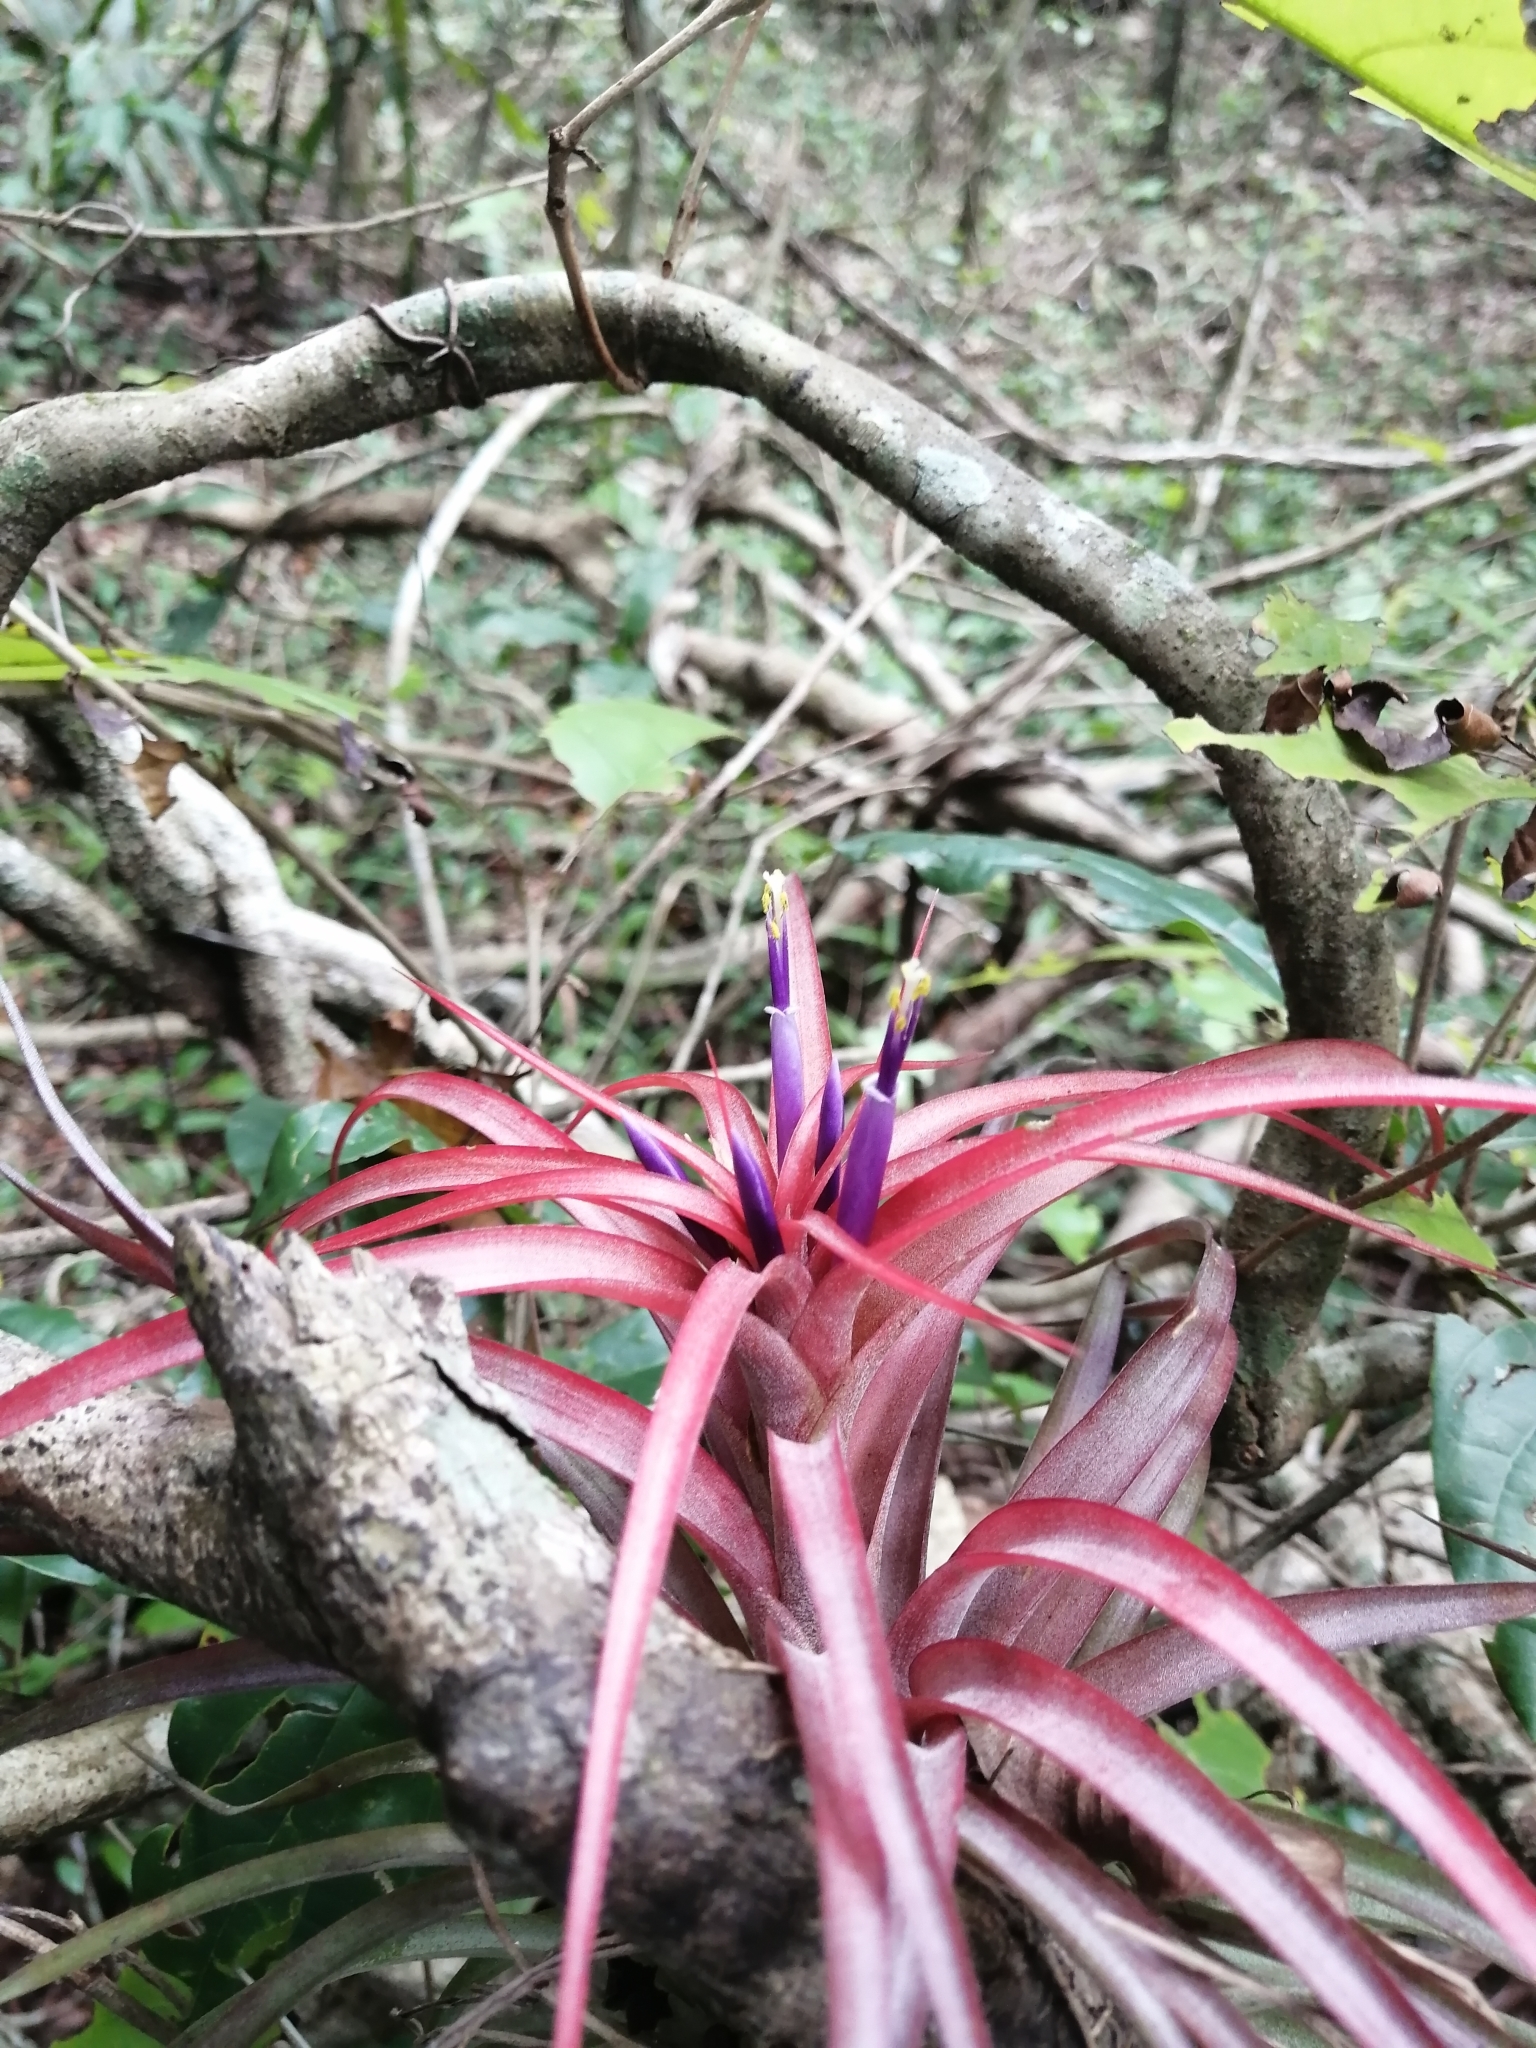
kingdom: Plantae
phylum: Tracheophyta
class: Liliopsida
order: Poales
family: Bromeliaceae
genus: Tillandsia
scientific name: Tillandsia brachycaulos
